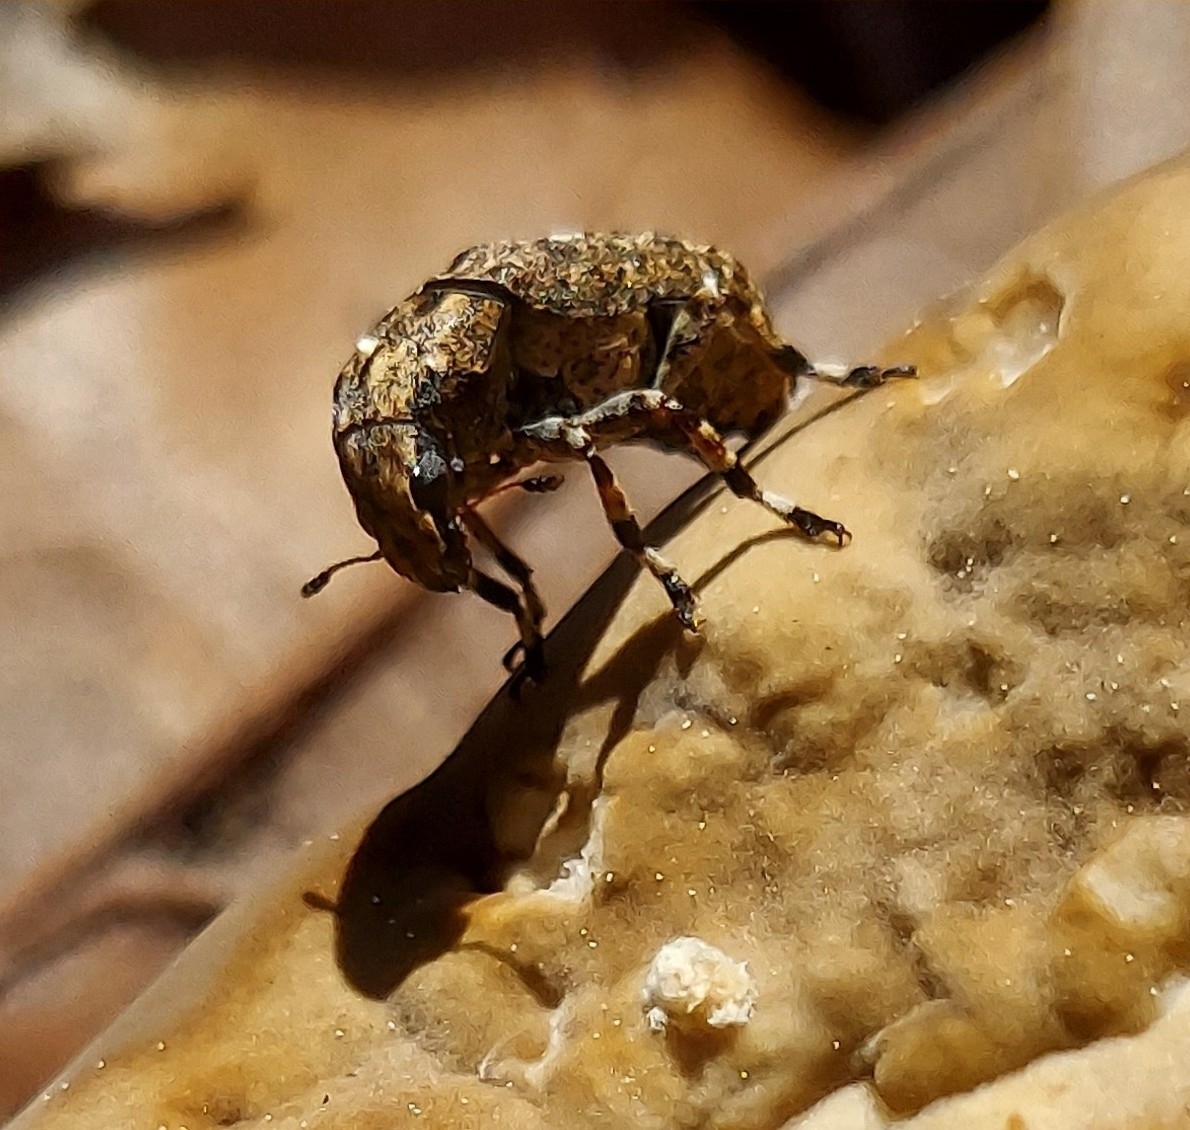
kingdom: Animalia
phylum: Arthropoda
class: Insecta
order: Coleoptera
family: Anthribidae
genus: Euparius
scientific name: Euparius marmoreus
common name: Marbled fungus weevil
